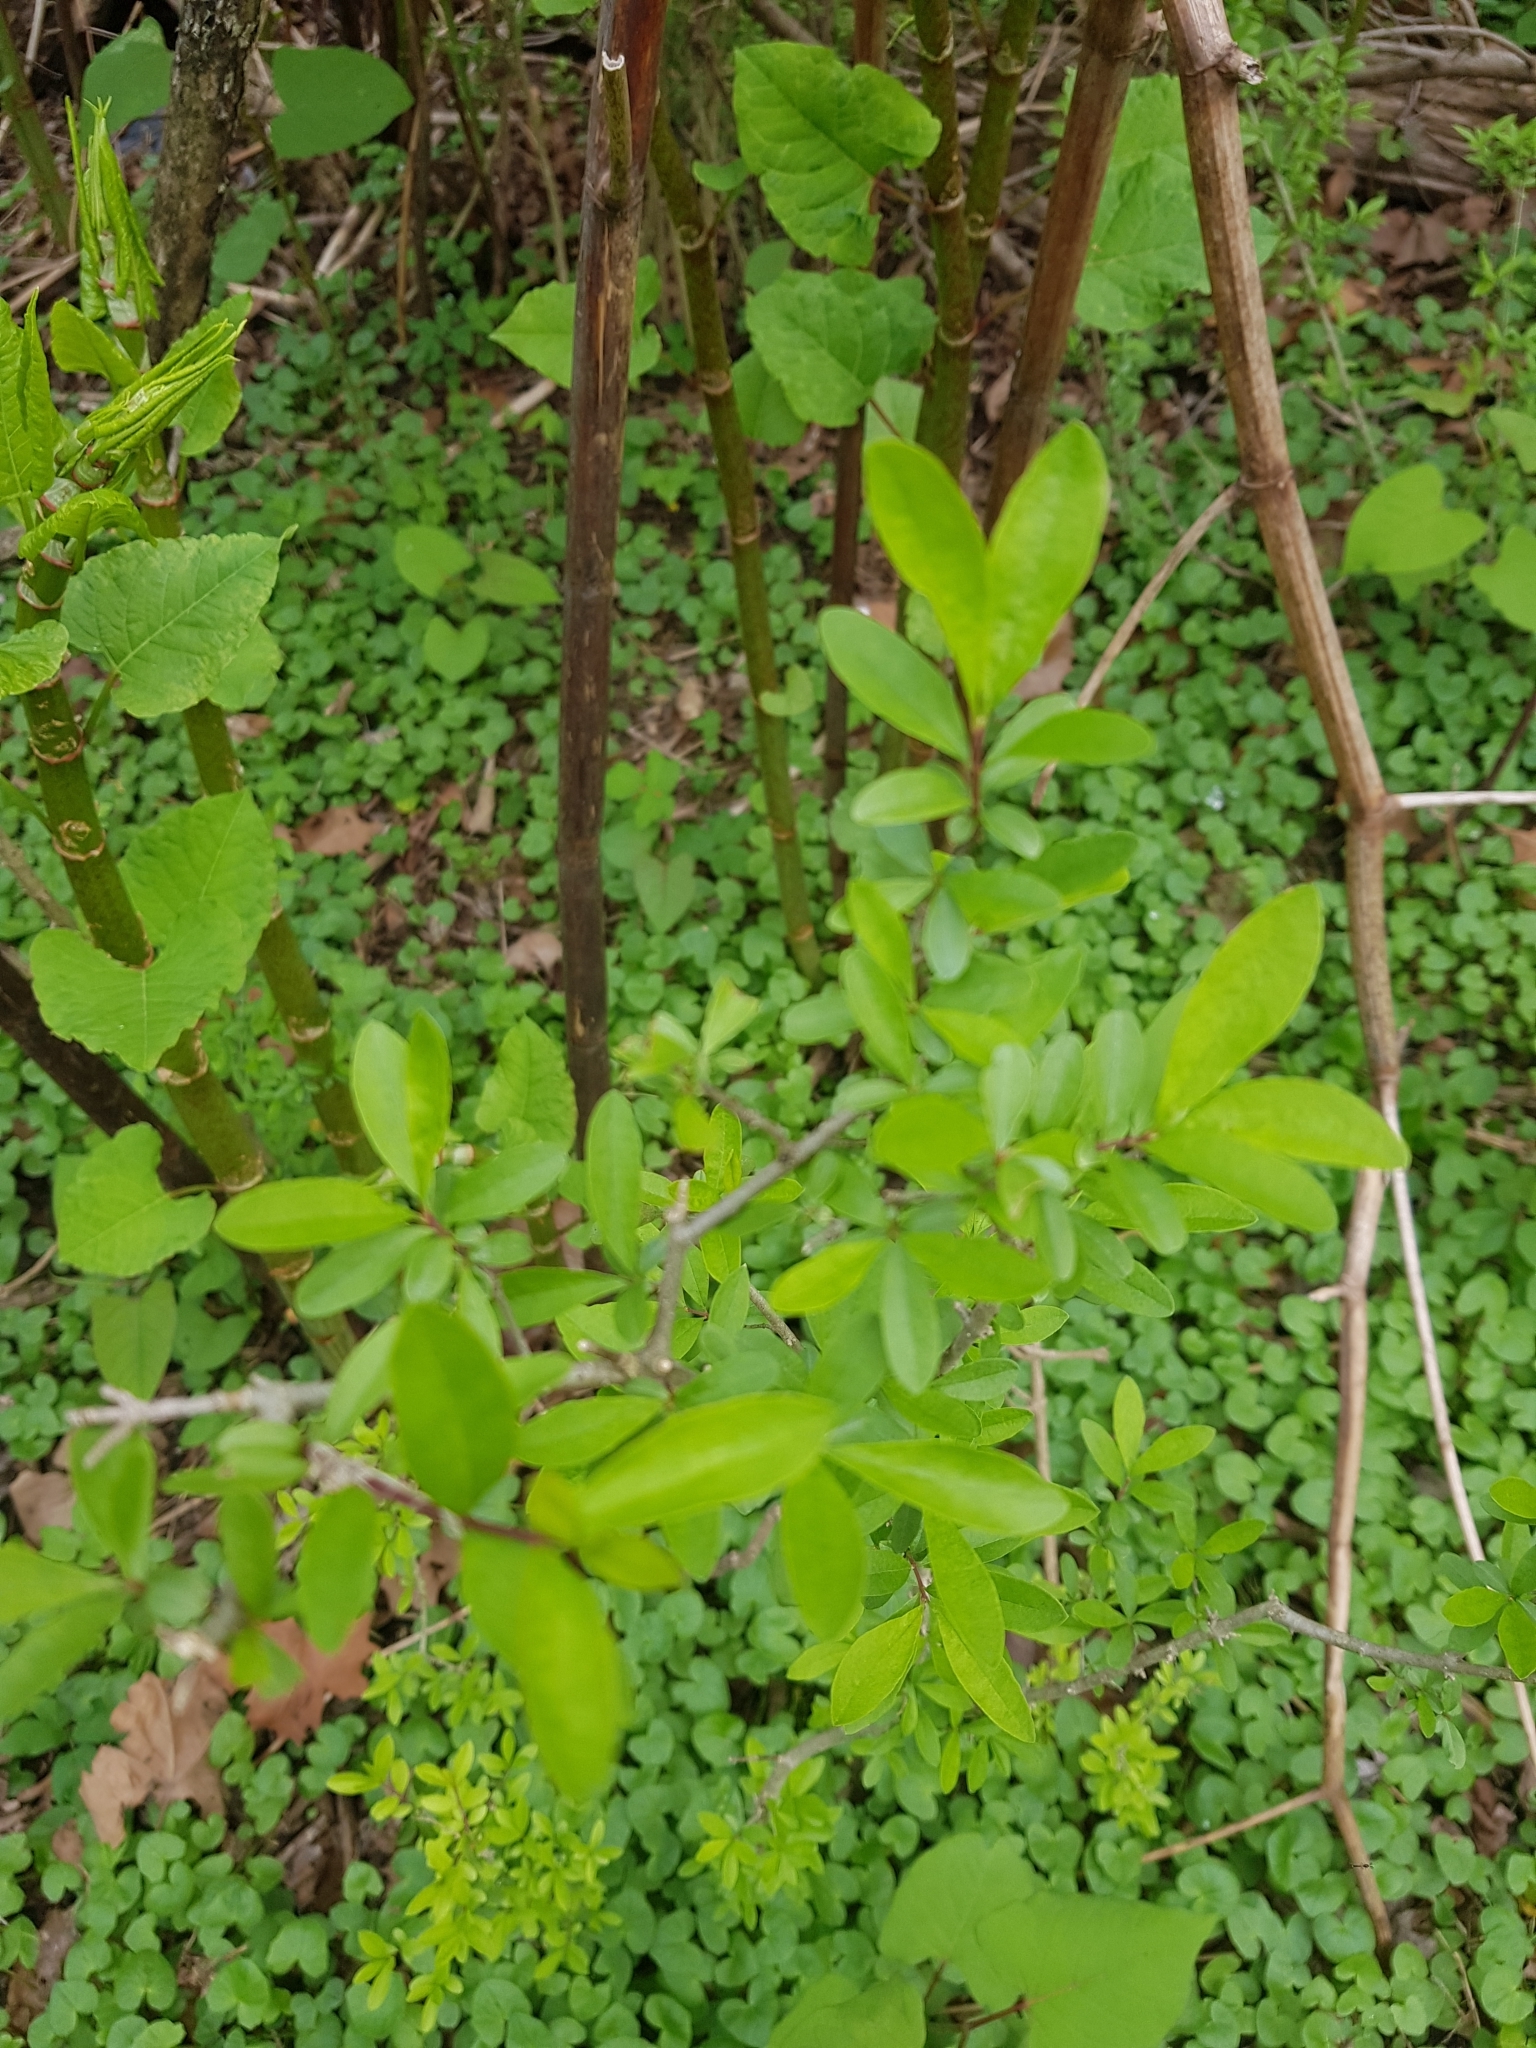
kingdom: Plantae
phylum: Tracheophyta
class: Magnoliopsida
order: Lamiales
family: Oleaceae
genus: Ligustrum
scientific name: Ligustrum
